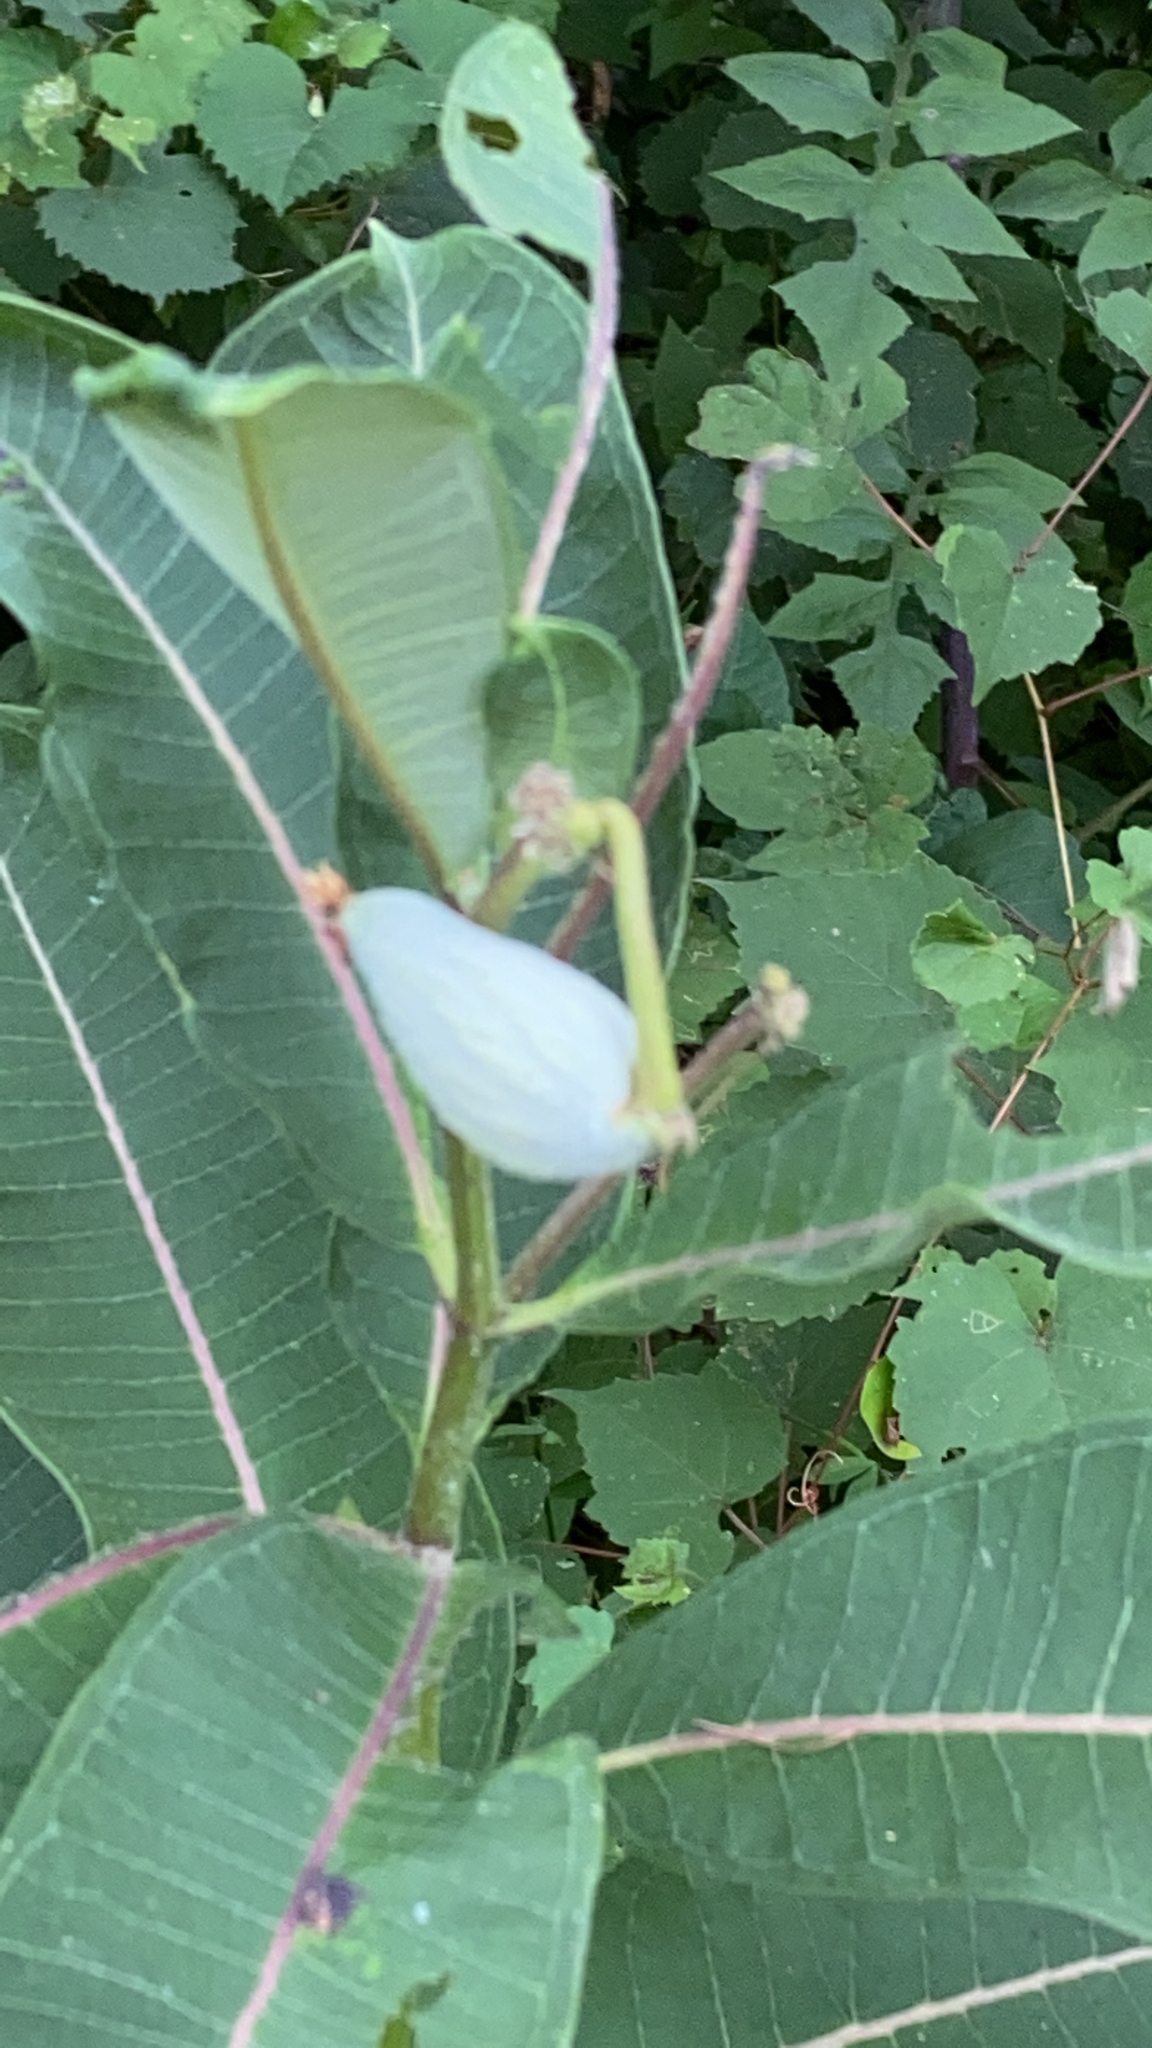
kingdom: Plantae
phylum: Tracheophyta
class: Magnoliopsida
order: Gentianales
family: Apocynaceae
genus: Asclepias
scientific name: Asclepias syriaca
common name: Common milkweed
